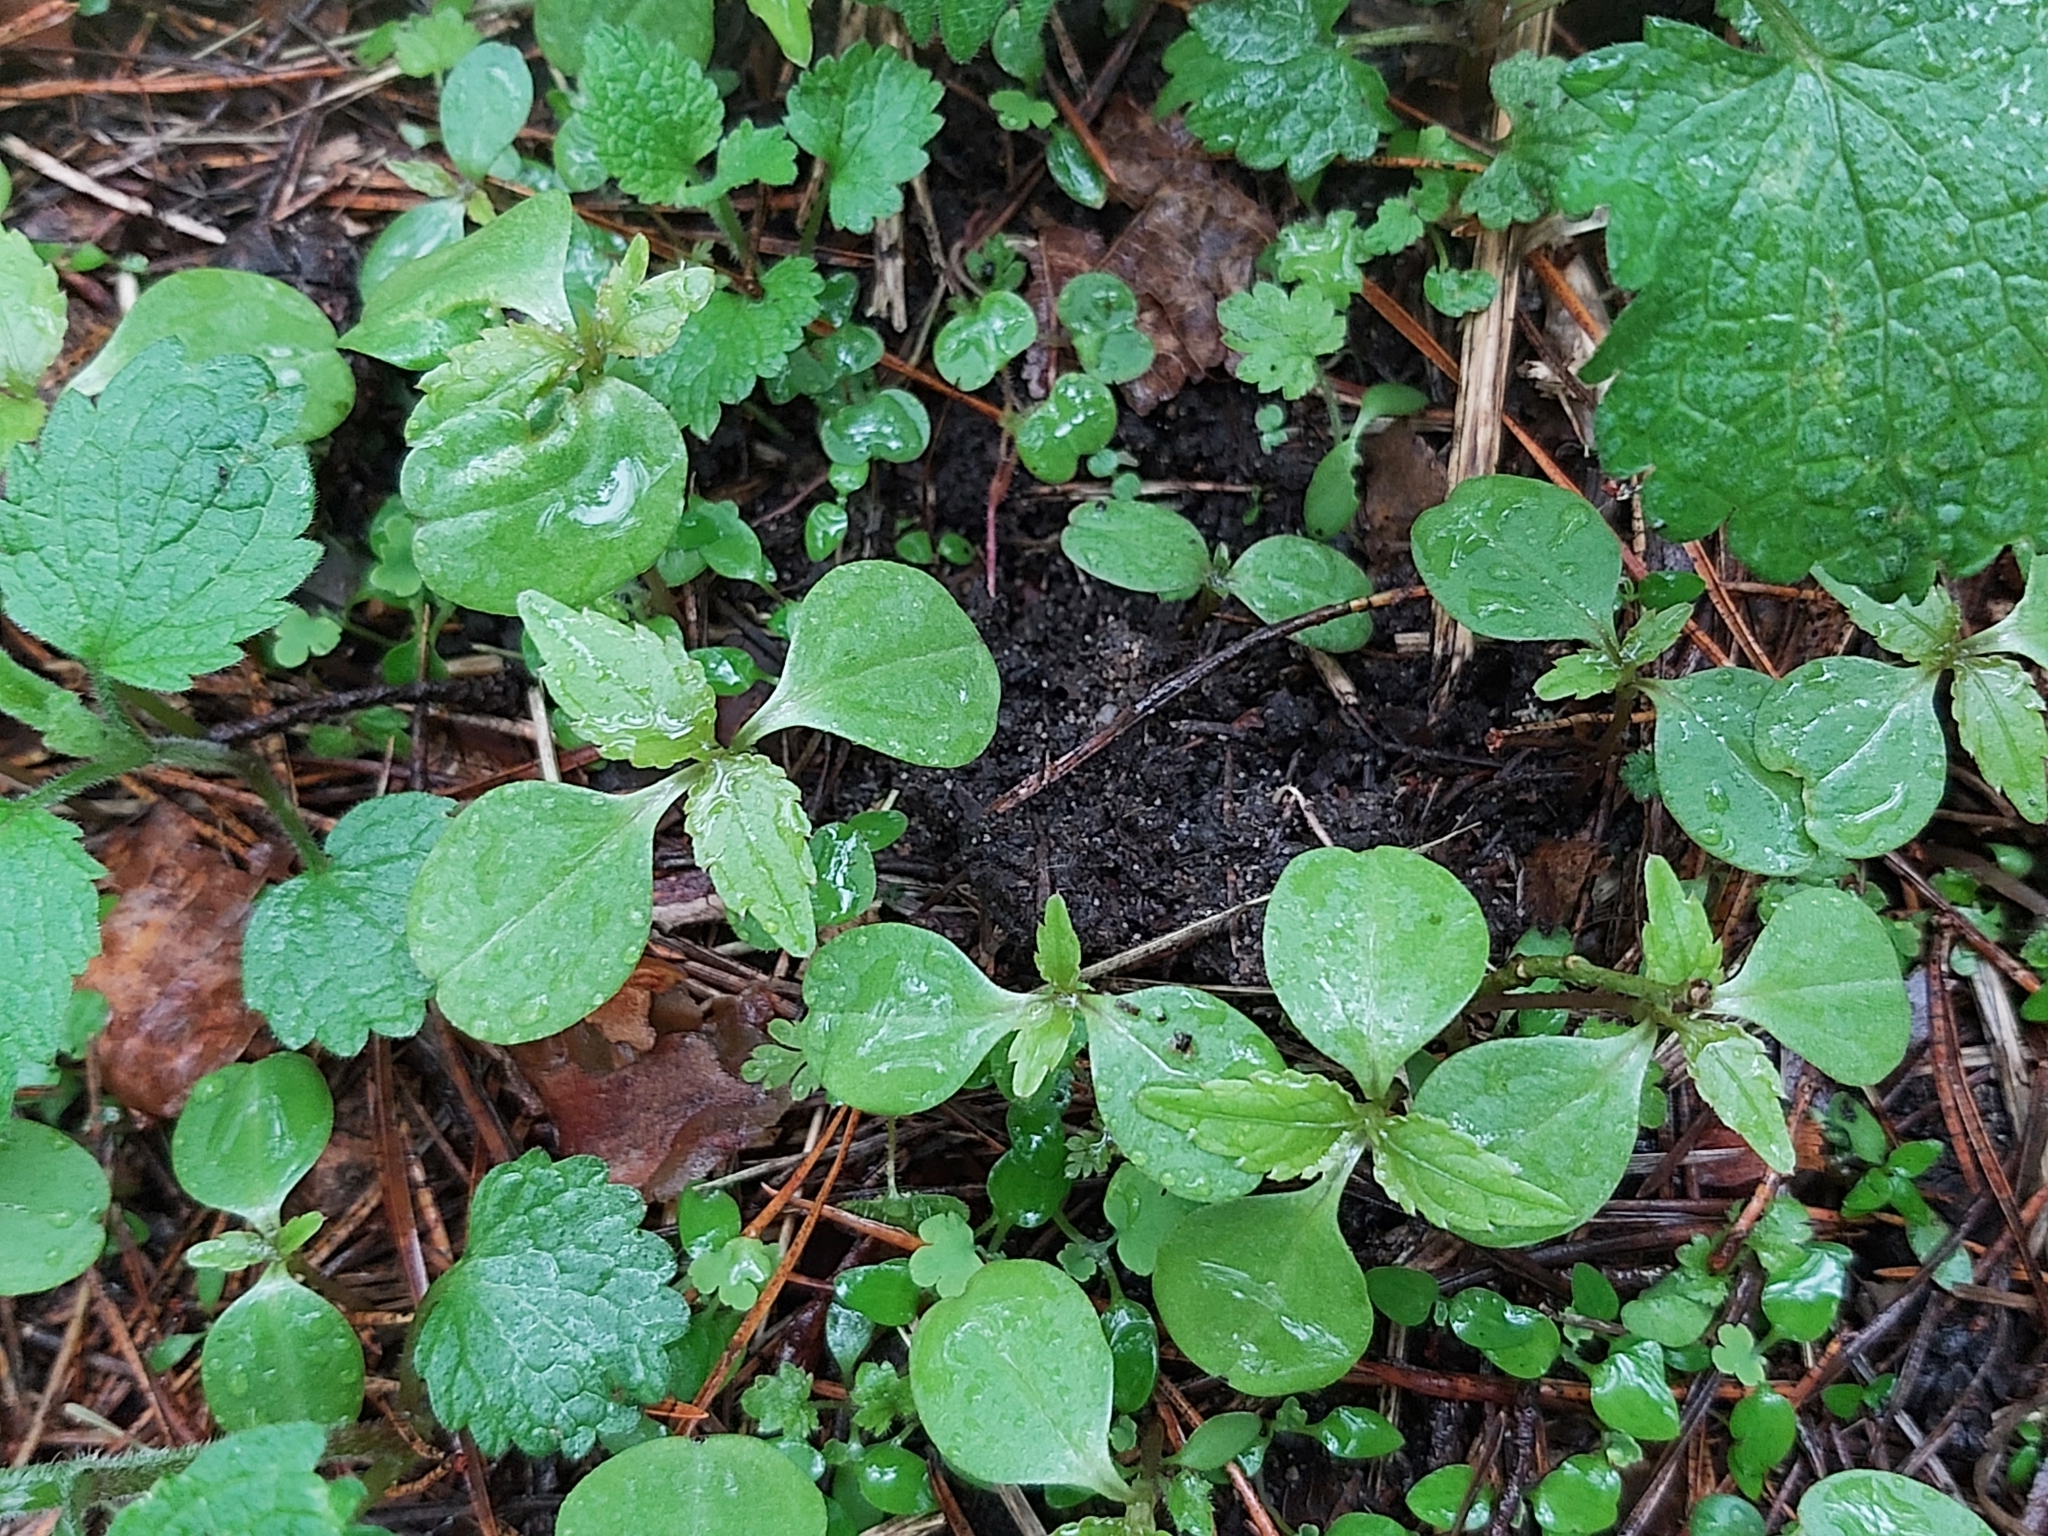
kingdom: Plantae
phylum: Tracheophyta
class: Magnoliopsida
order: Ericales
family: Balsaminaceae
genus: Impatiens
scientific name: Impatiens parviflora
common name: Small balsam
